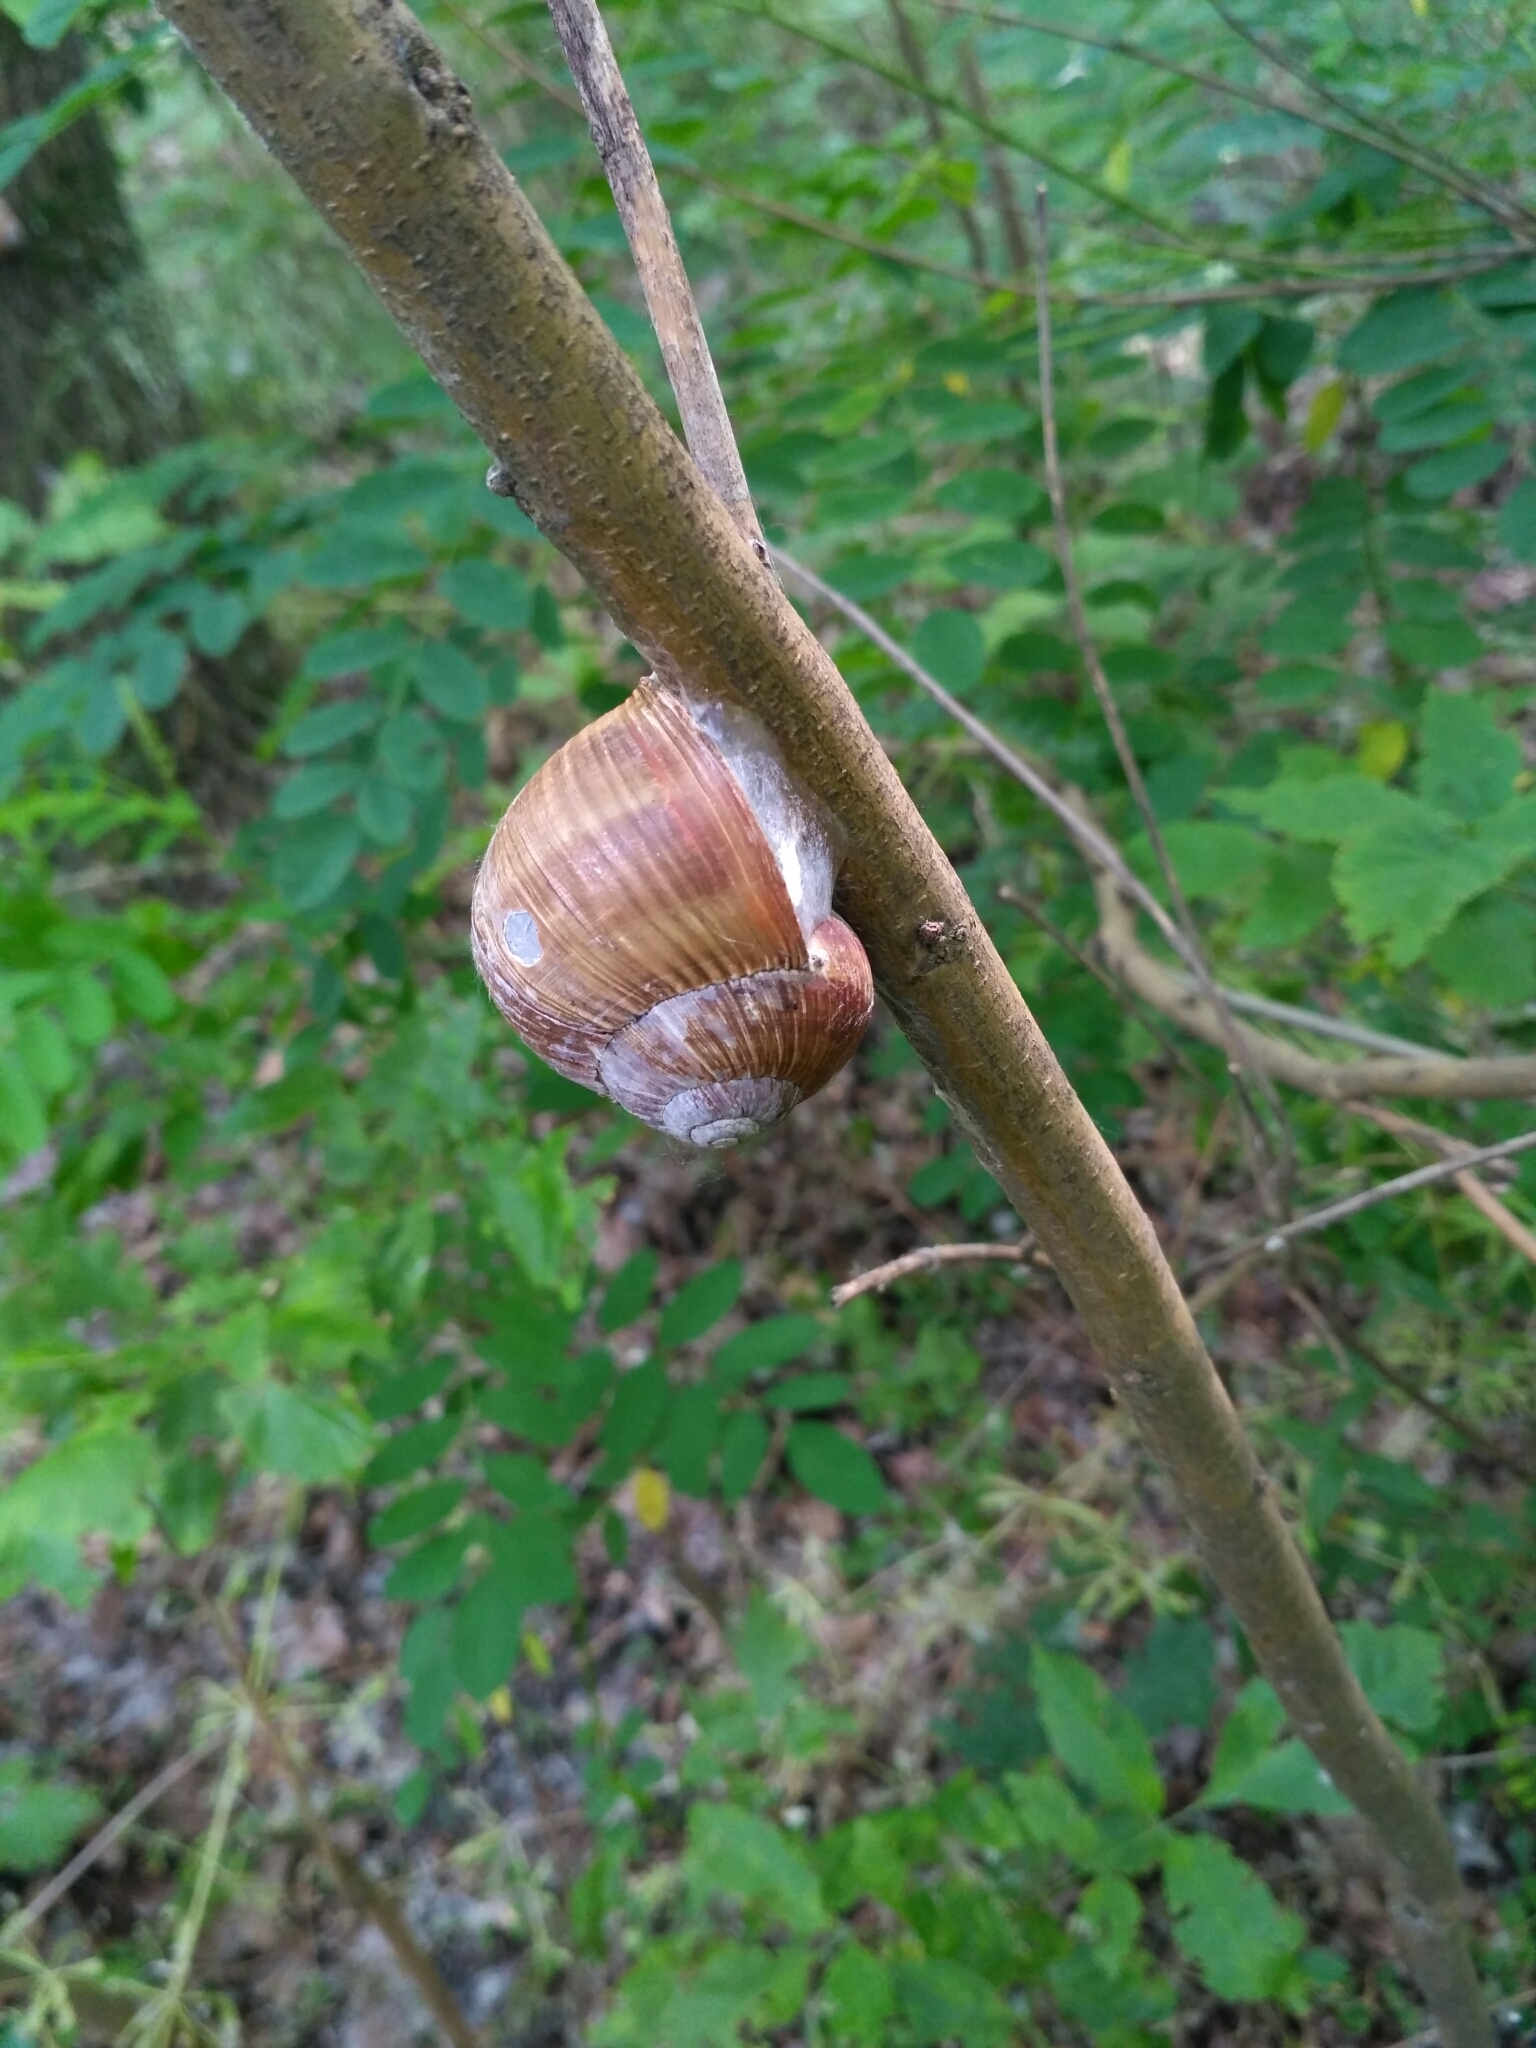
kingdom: Animalia
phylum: Mollusca
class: Gastropoda
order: Stylommatophora
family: Helicidae
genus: Helix
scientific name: Helix pomatia
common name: Roman snail
